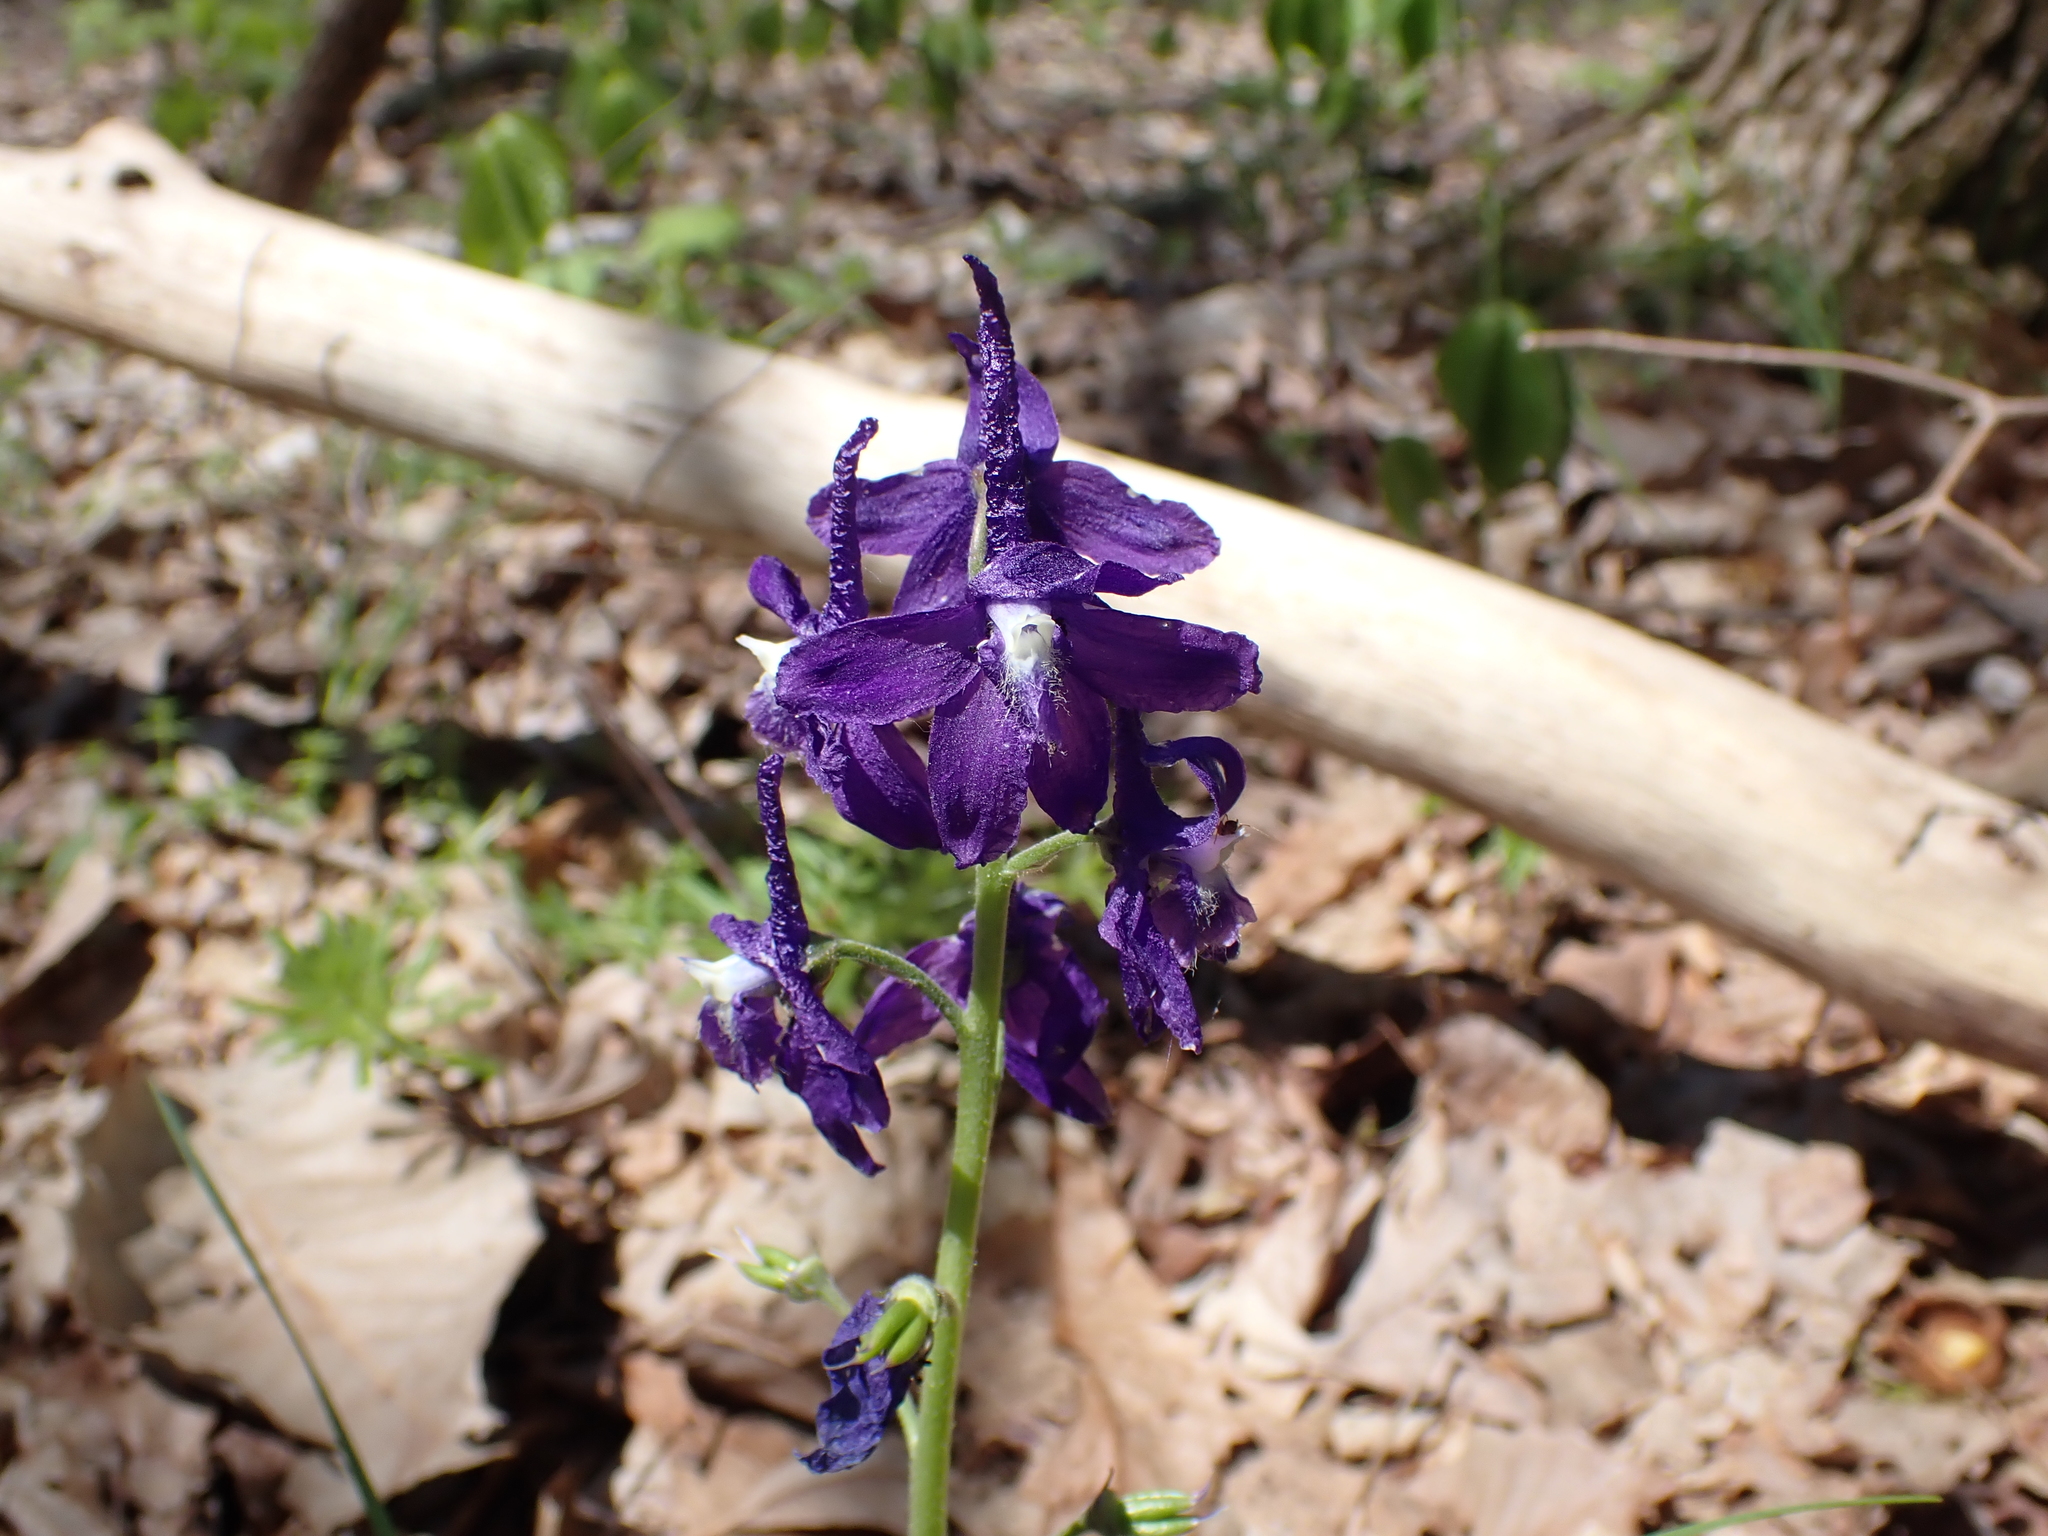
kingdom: Plantae
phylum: Tracheophyta
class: Magnoliopsida
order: Ranunculales
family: Ranunculaceae
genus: Delphinium
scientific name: Delphinium tricorne
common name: Dwarf larkspur
